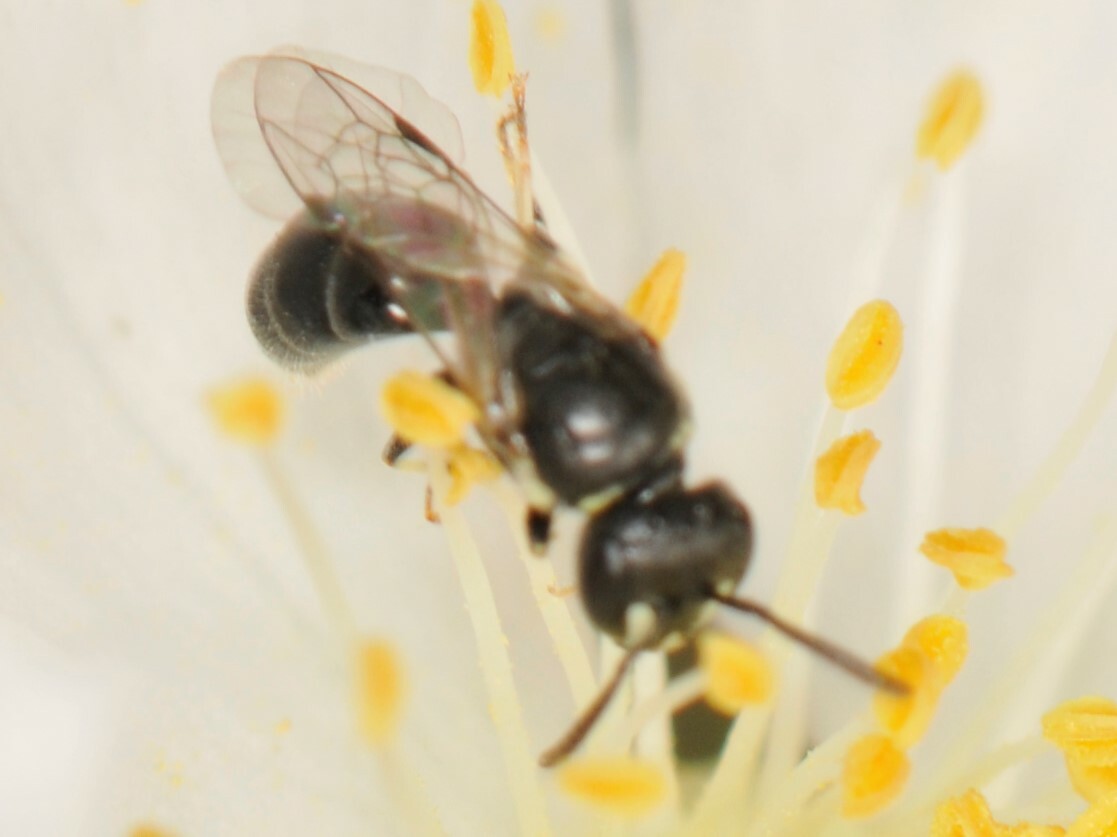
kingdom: Animalia
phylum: Arthropoda
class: Insecta
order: Hymenoptera
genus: Paraprosopis
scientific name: Paraprosopis
